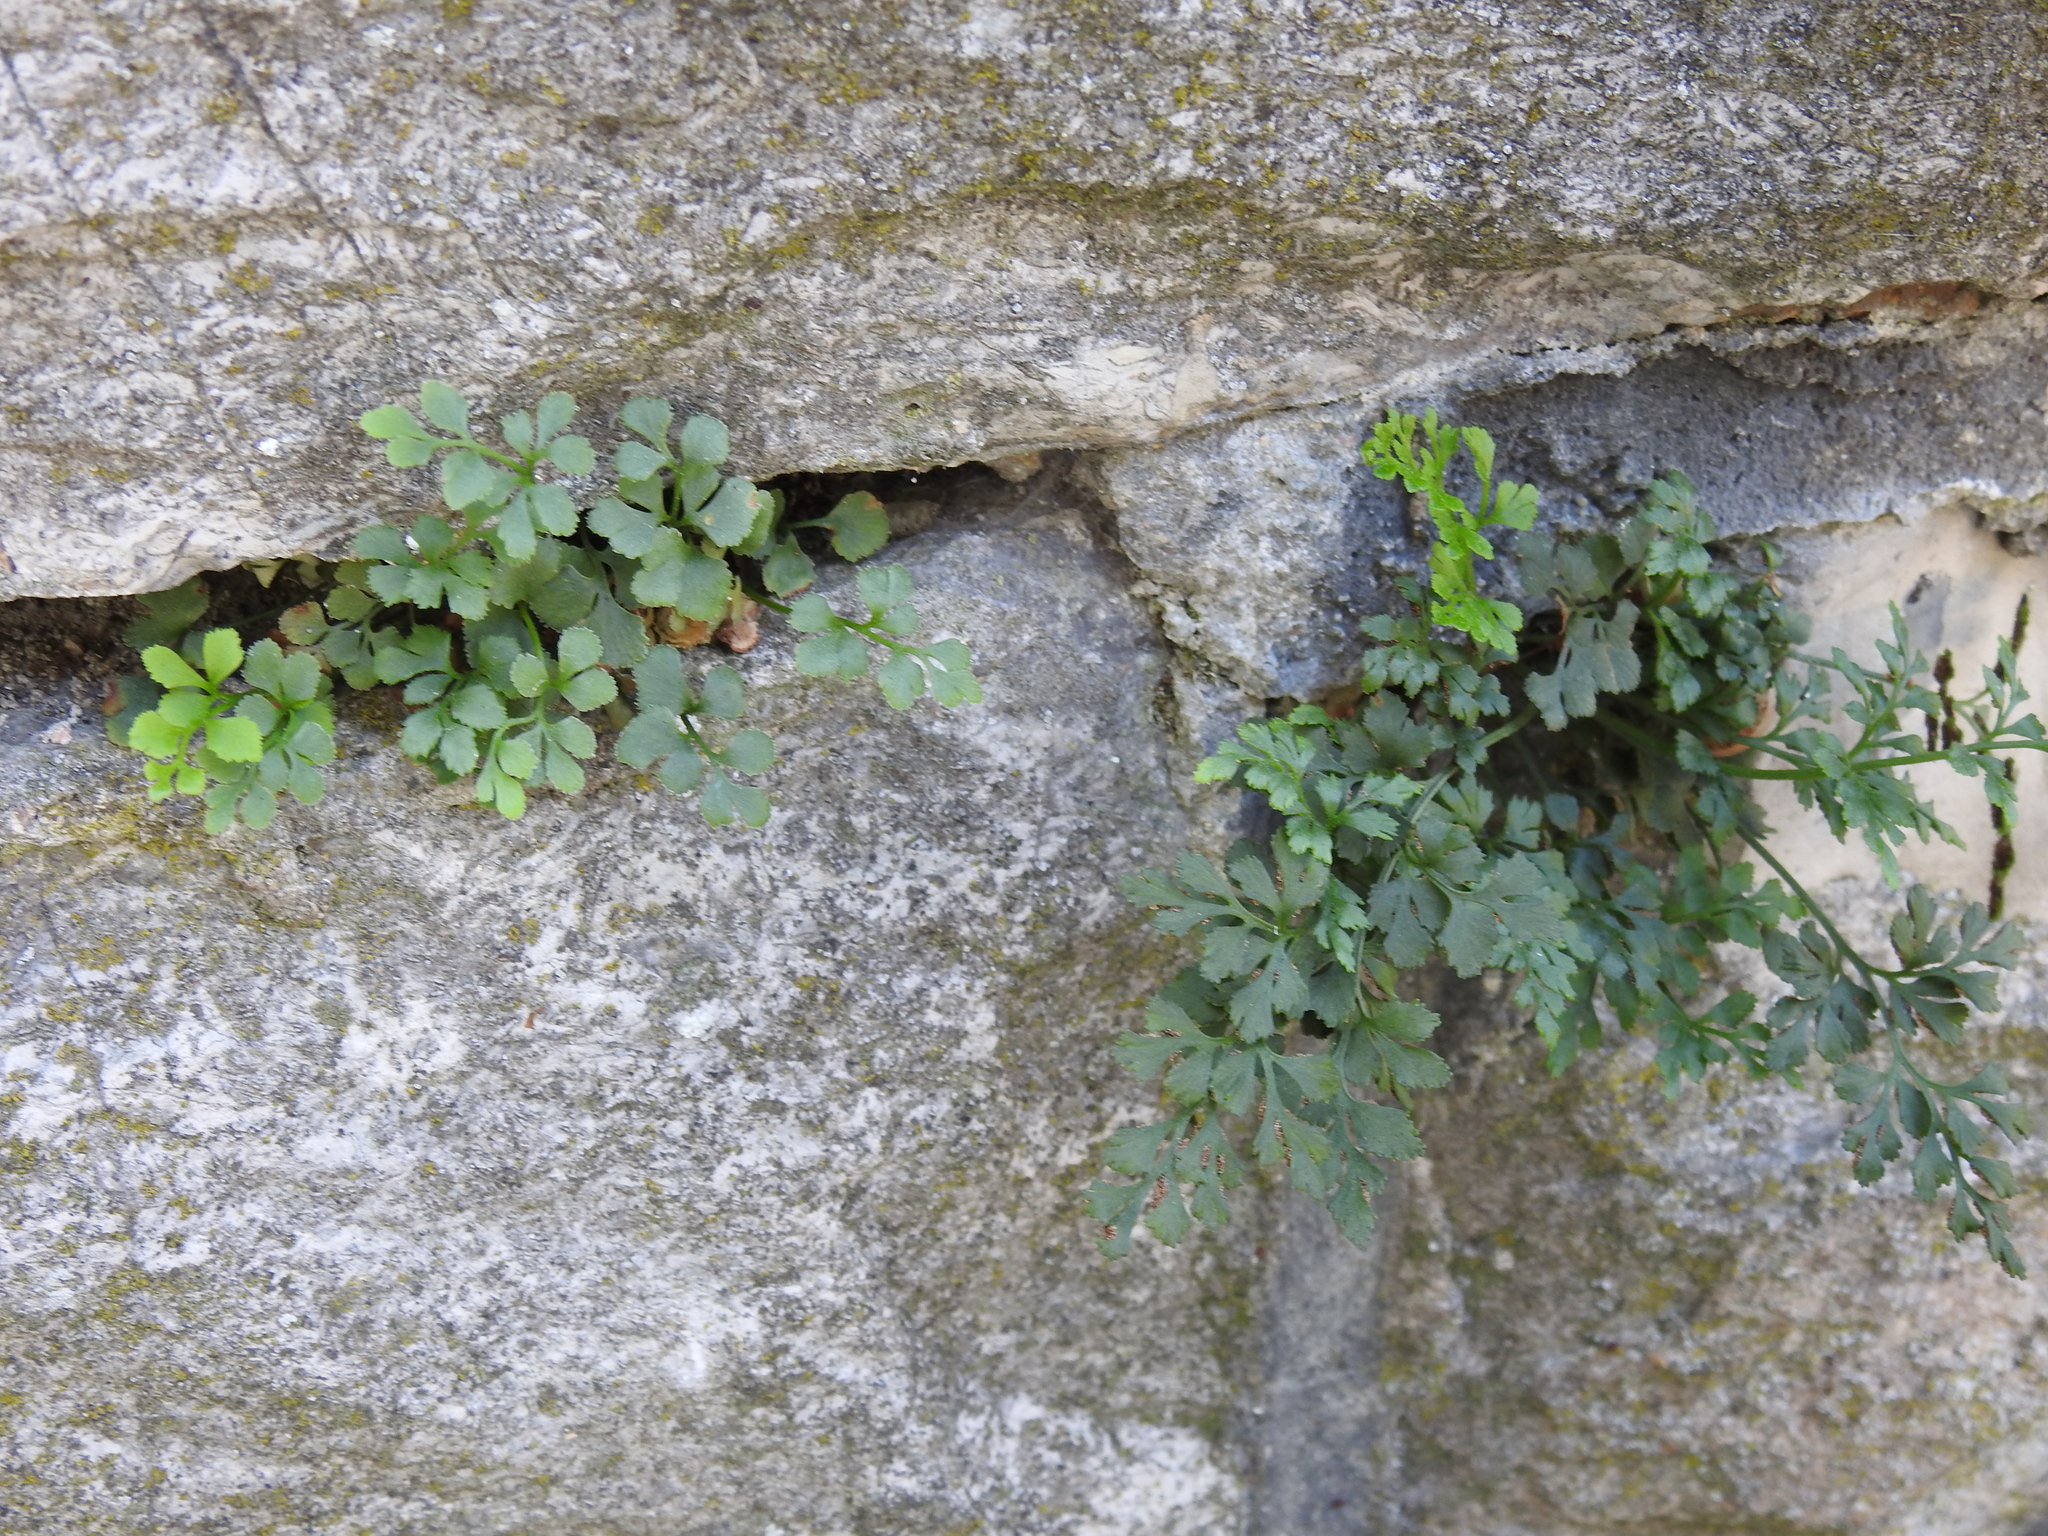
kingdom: Plantae
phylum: Tracheophyta
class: Polypodiopsida
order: Polypodiales
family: Aspleniaceae
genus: Asplenium
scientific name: Asplenium ruta-muraria
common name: Wall-rue
